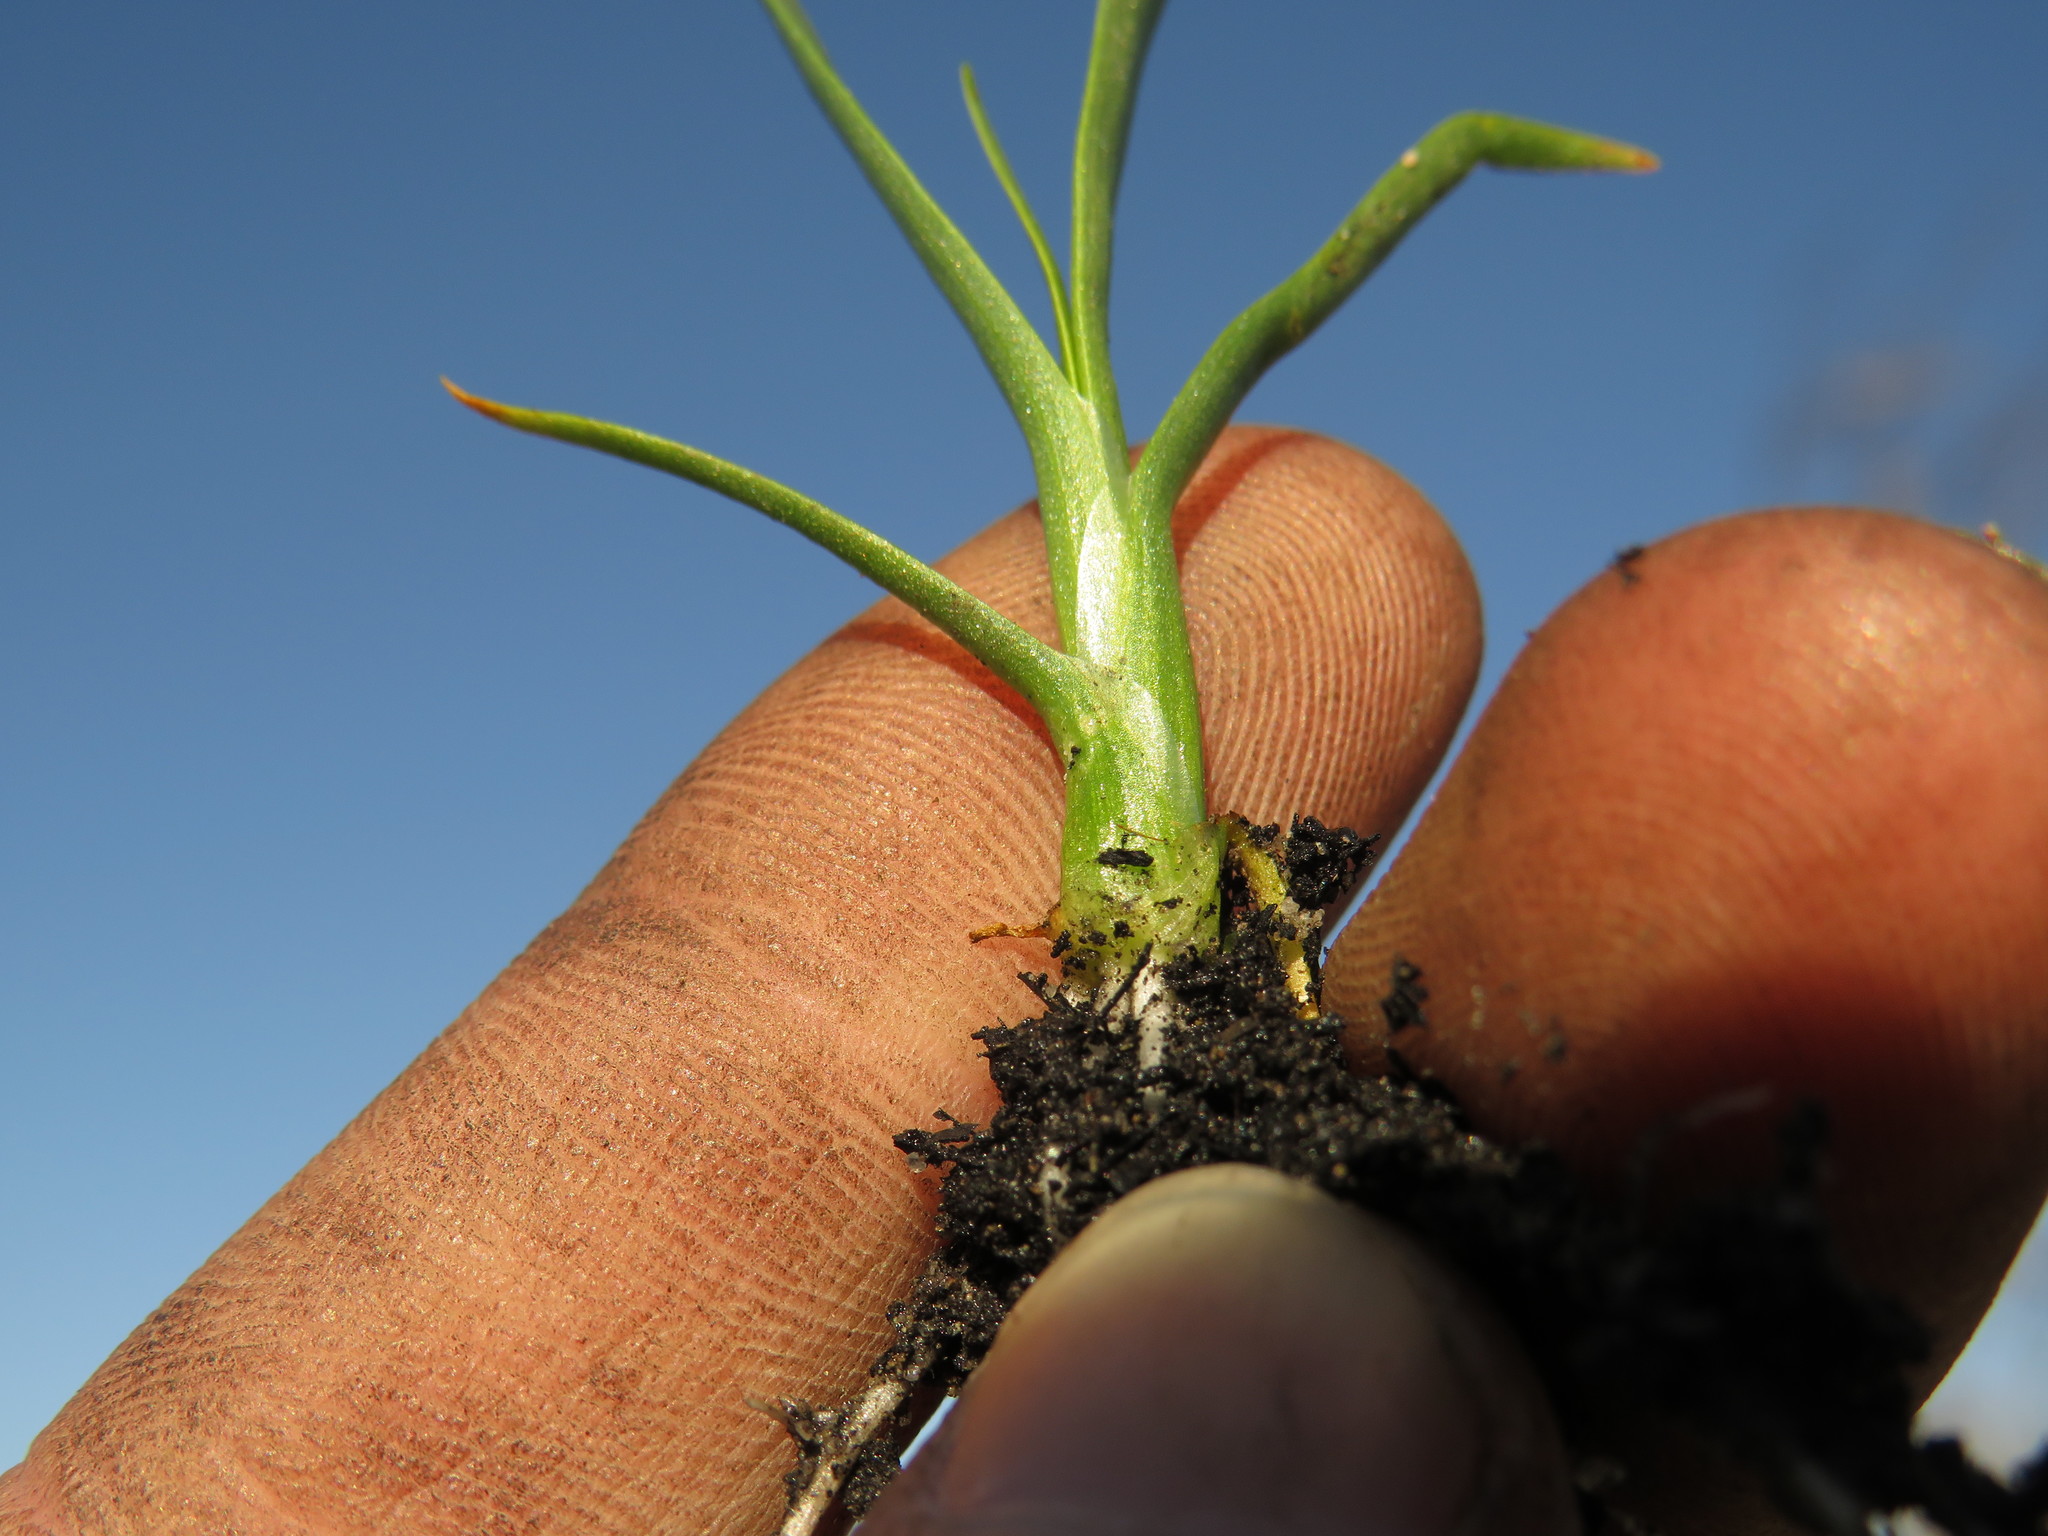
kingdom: Plantae
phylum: Tracheophyta
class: Liliopsida
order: Poales
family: Typhaceae
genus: Typha
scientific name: Typha capensis
